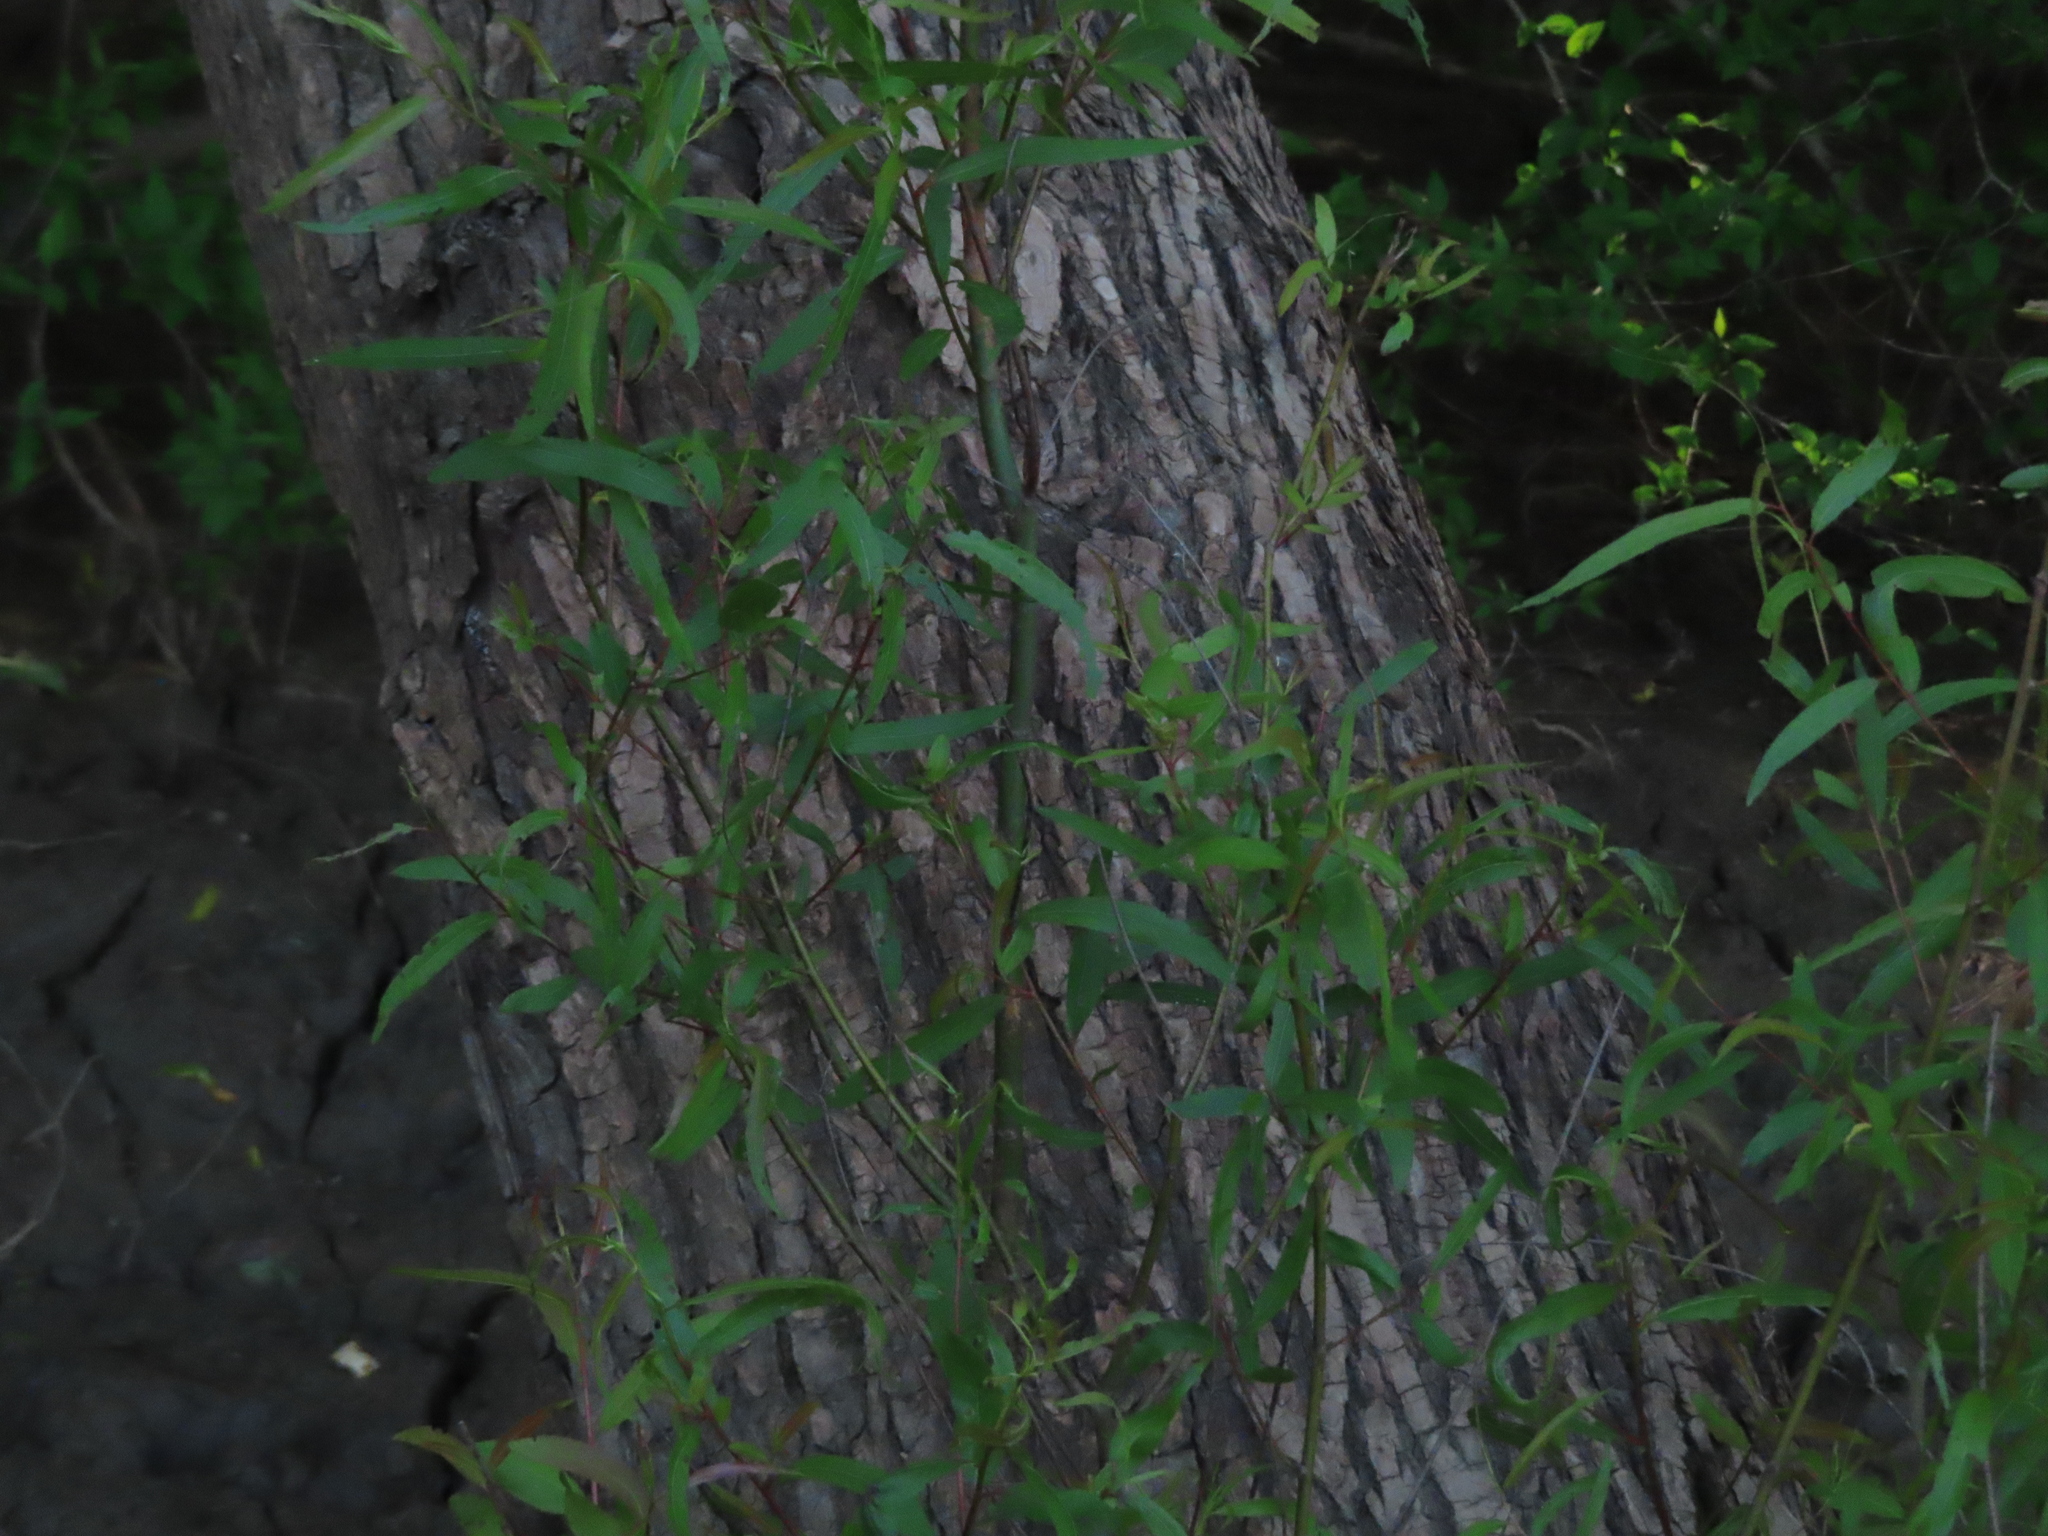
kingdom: Plantae
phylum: Tracheophyta
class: Magnoliopsida
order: Malpighiales
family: Salicaceae
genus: Salix
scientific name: Salix nigra
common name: Black willow
